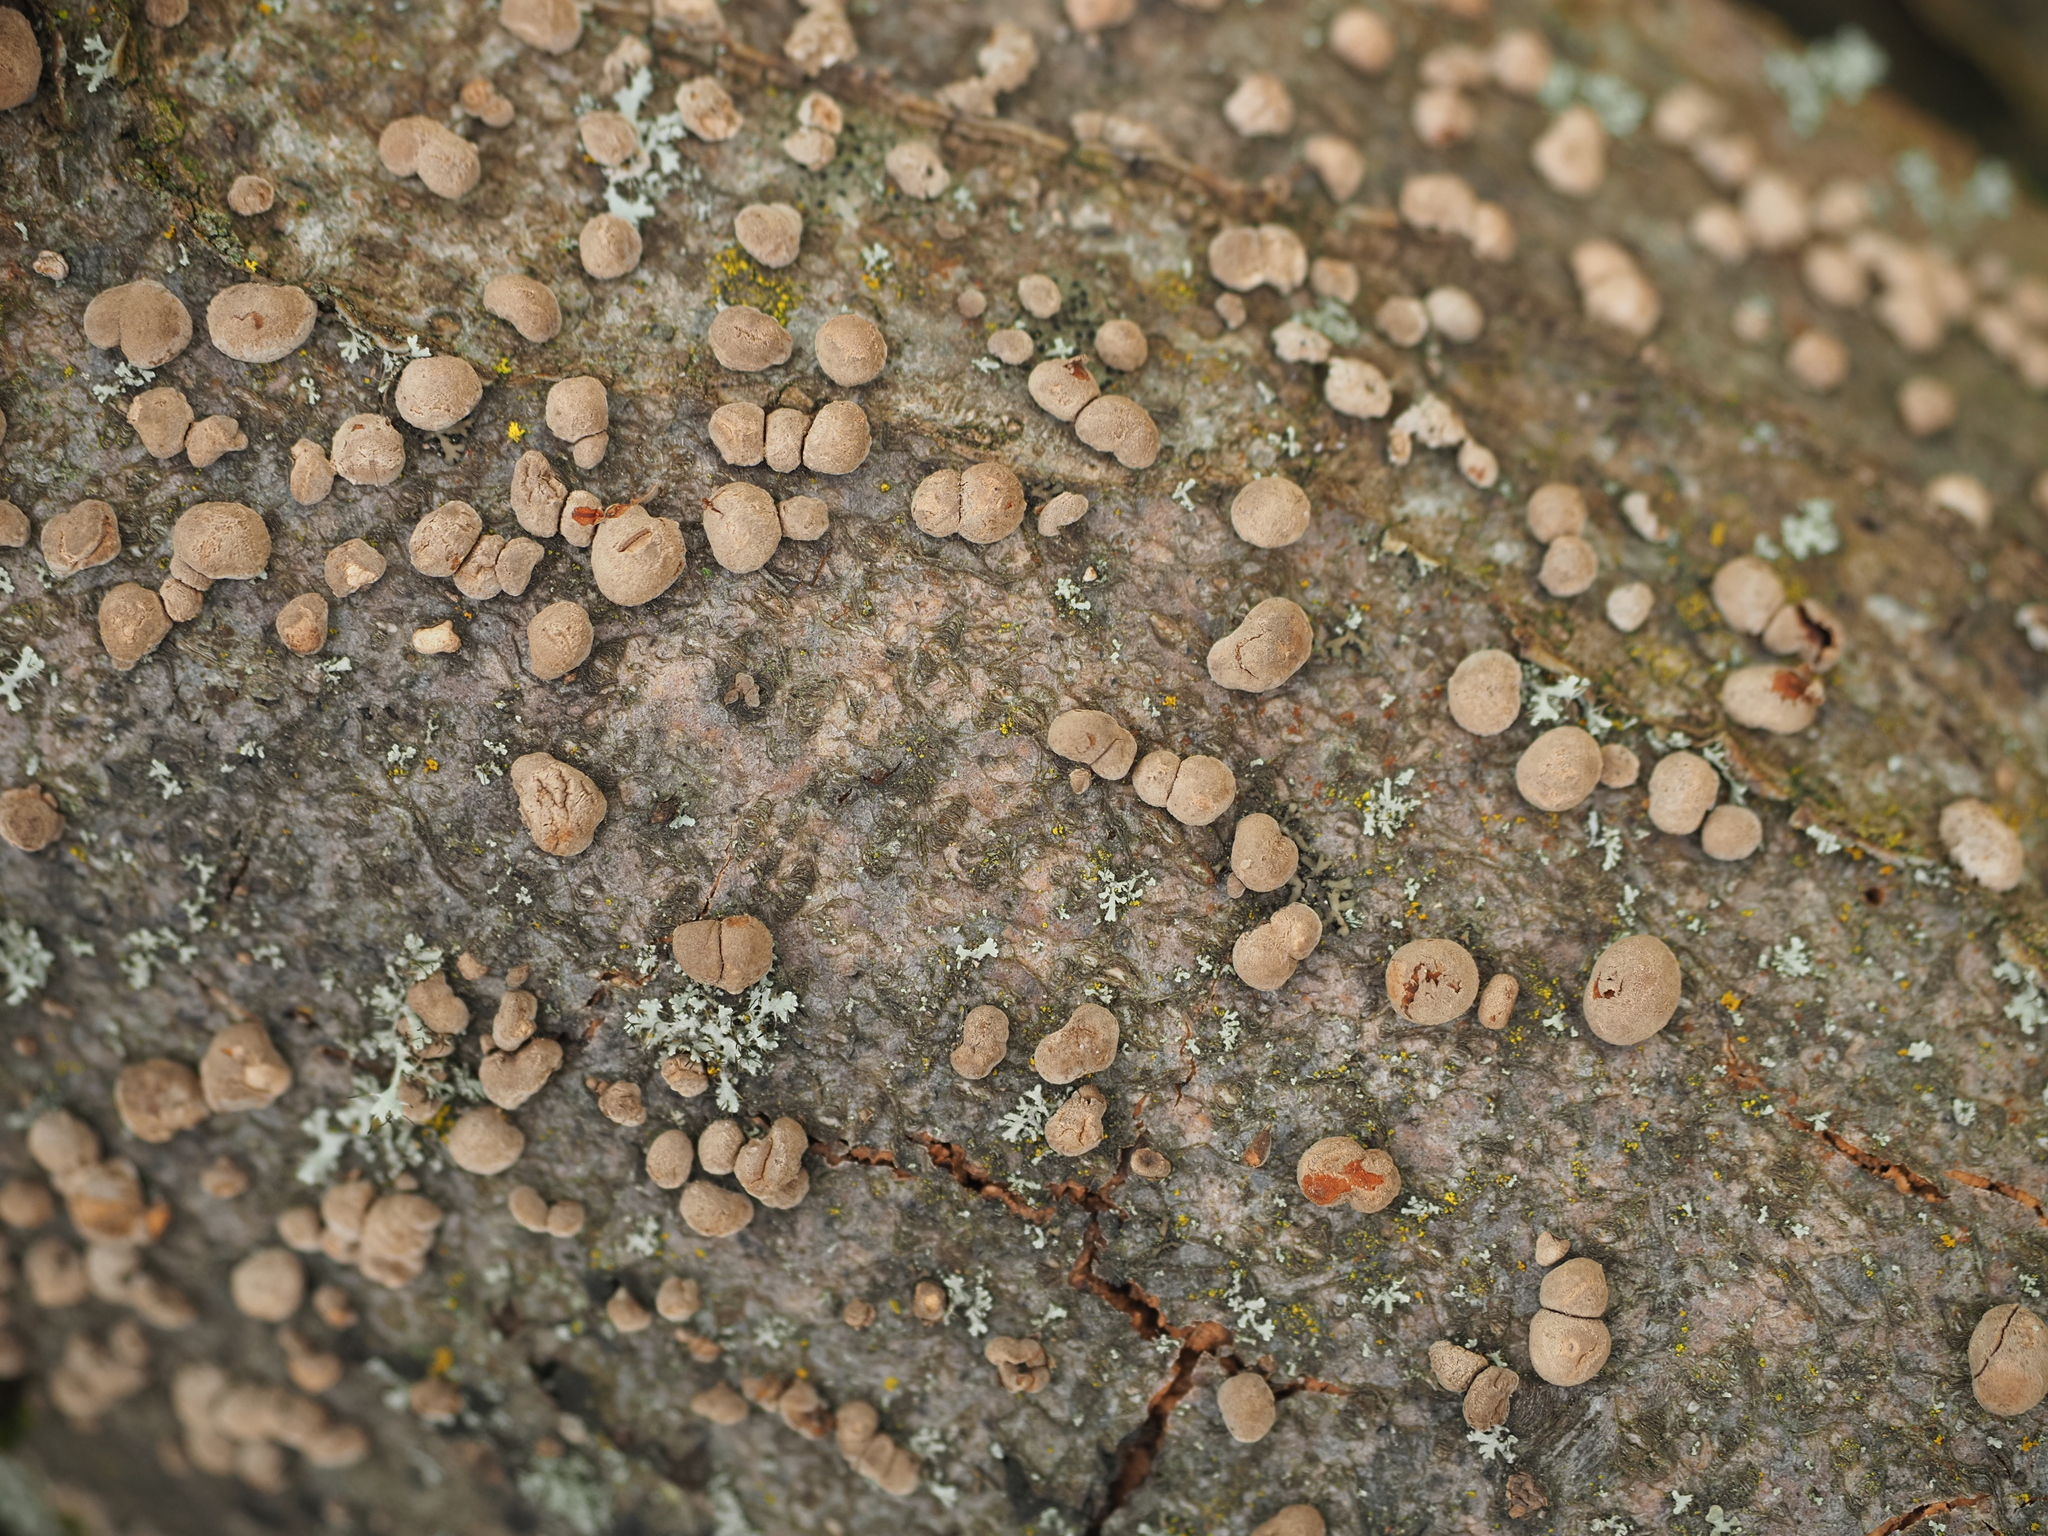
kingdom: Fungi
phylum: Ascomycota
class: Sordariomycetes
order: Xylariales
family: Hypoxylaceae
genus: Hypoxylon
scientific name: Hypoxylon fragiforme
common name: Beech woodwart
